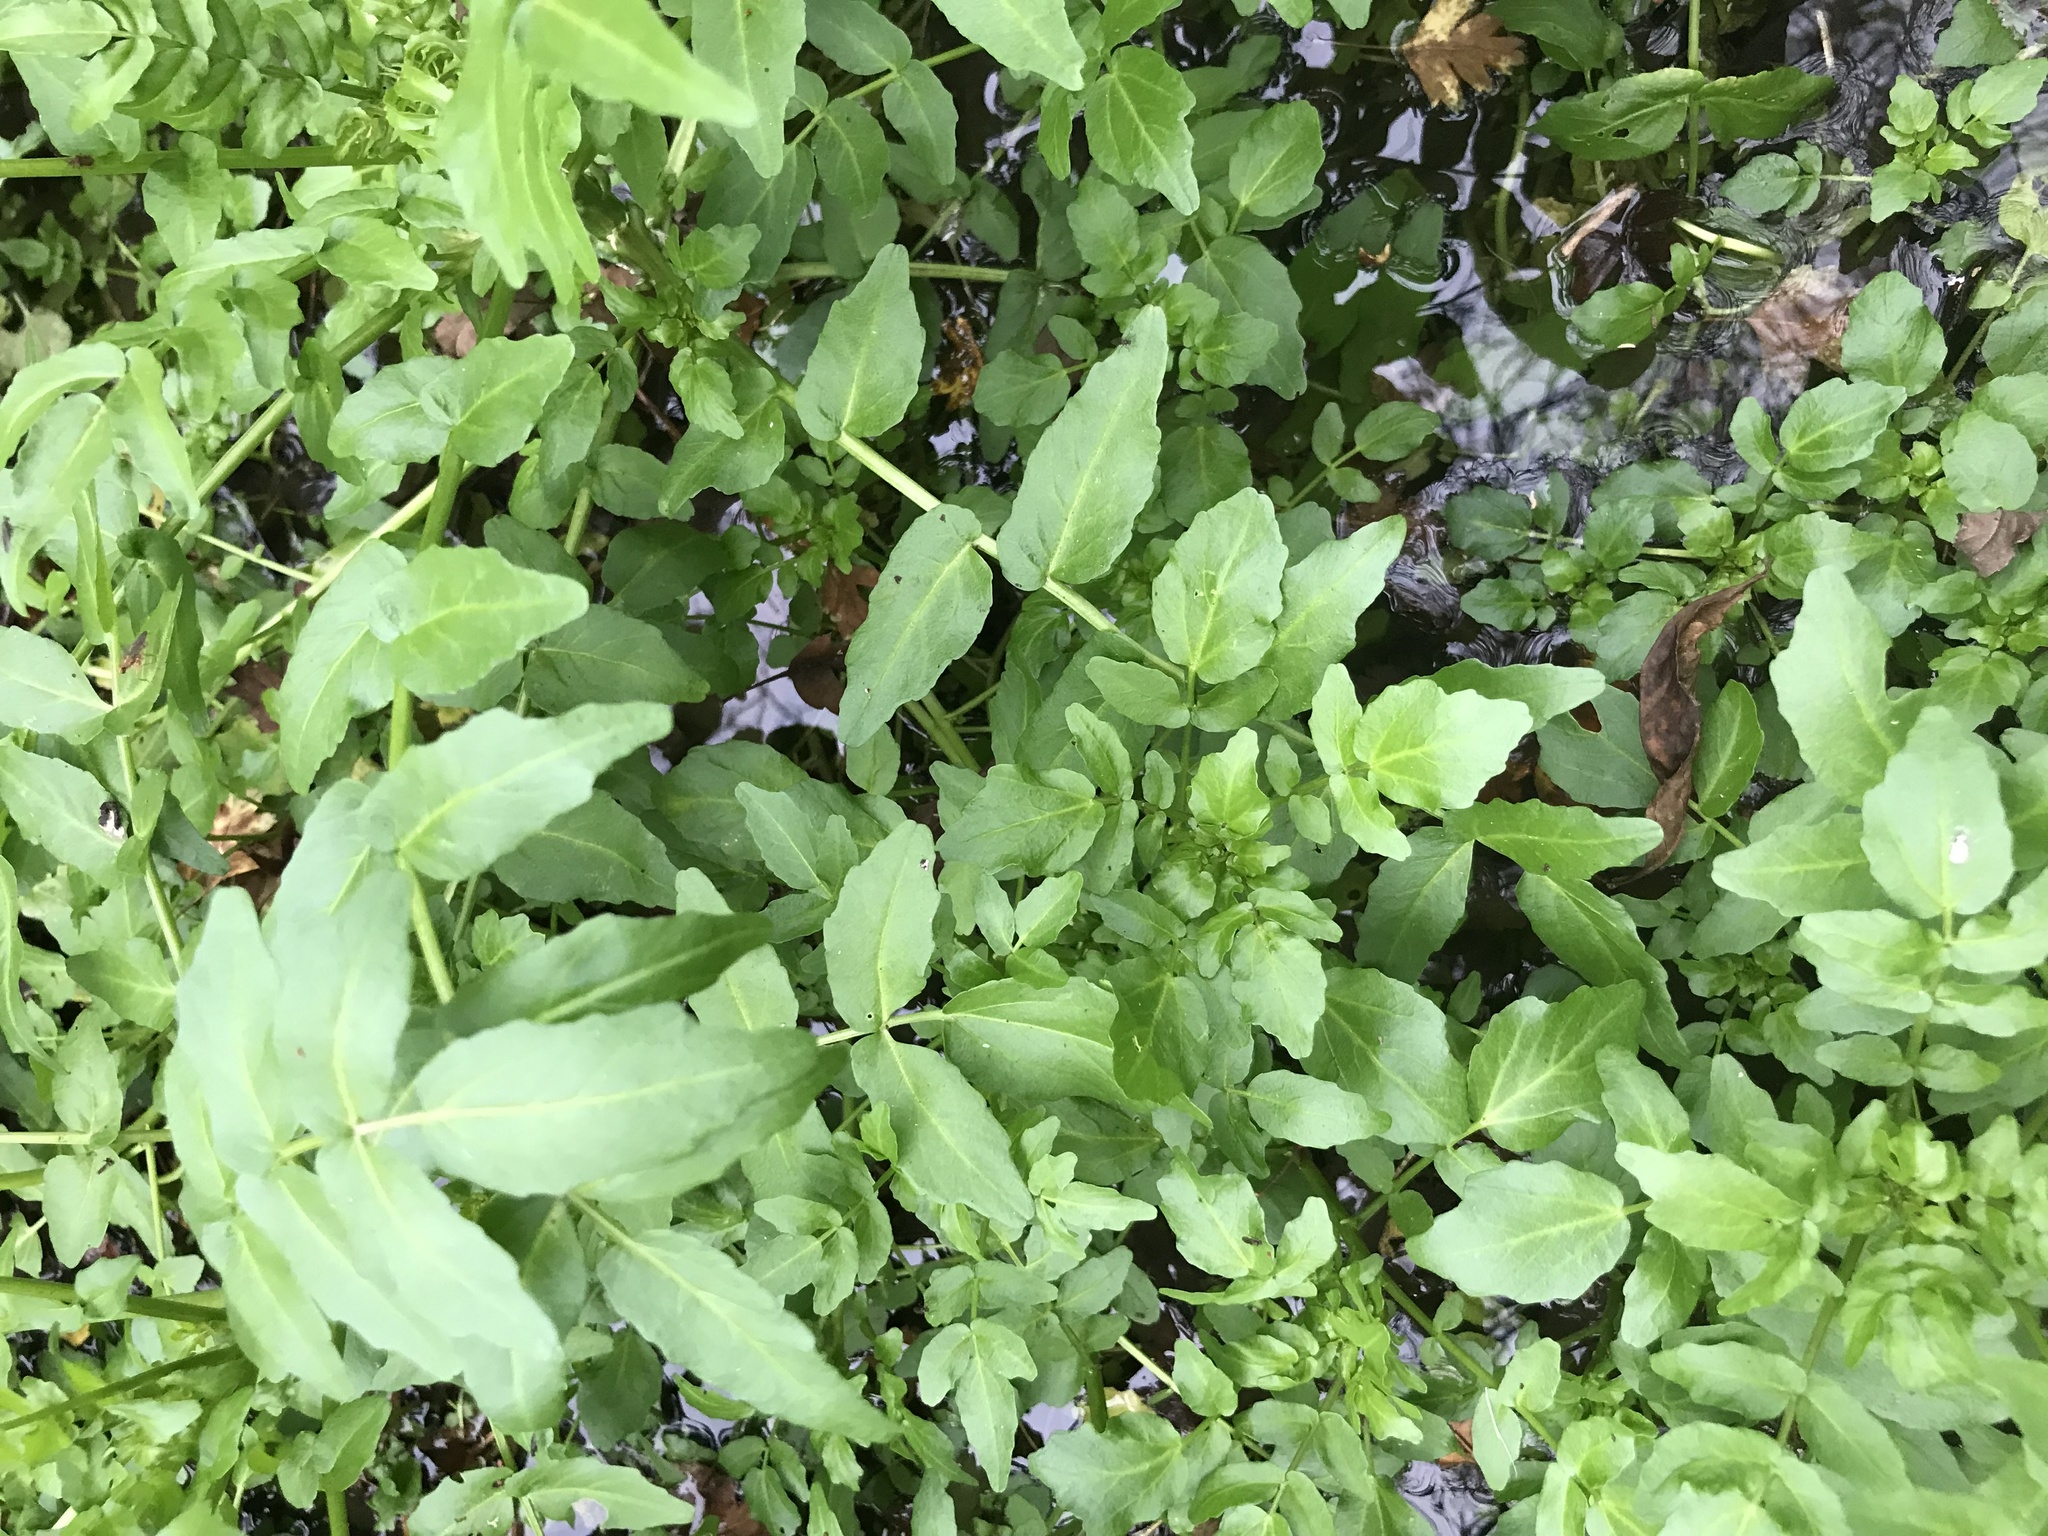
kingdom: Plantae
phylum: Tracheophyta
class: Magnoliopsida
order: Apiales
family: Apiaceae
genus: Helosciadium
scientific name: Helosciadium nodiflorum
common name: Fool's-watercress
